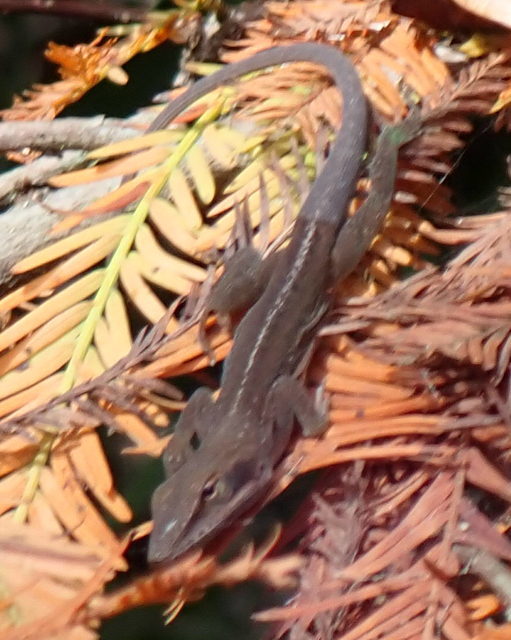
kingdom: Animalia
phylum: Chordata
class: Squamata
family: Dactyloidae
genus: Anolis
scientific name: Anolis carolinensis
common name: Green anole
